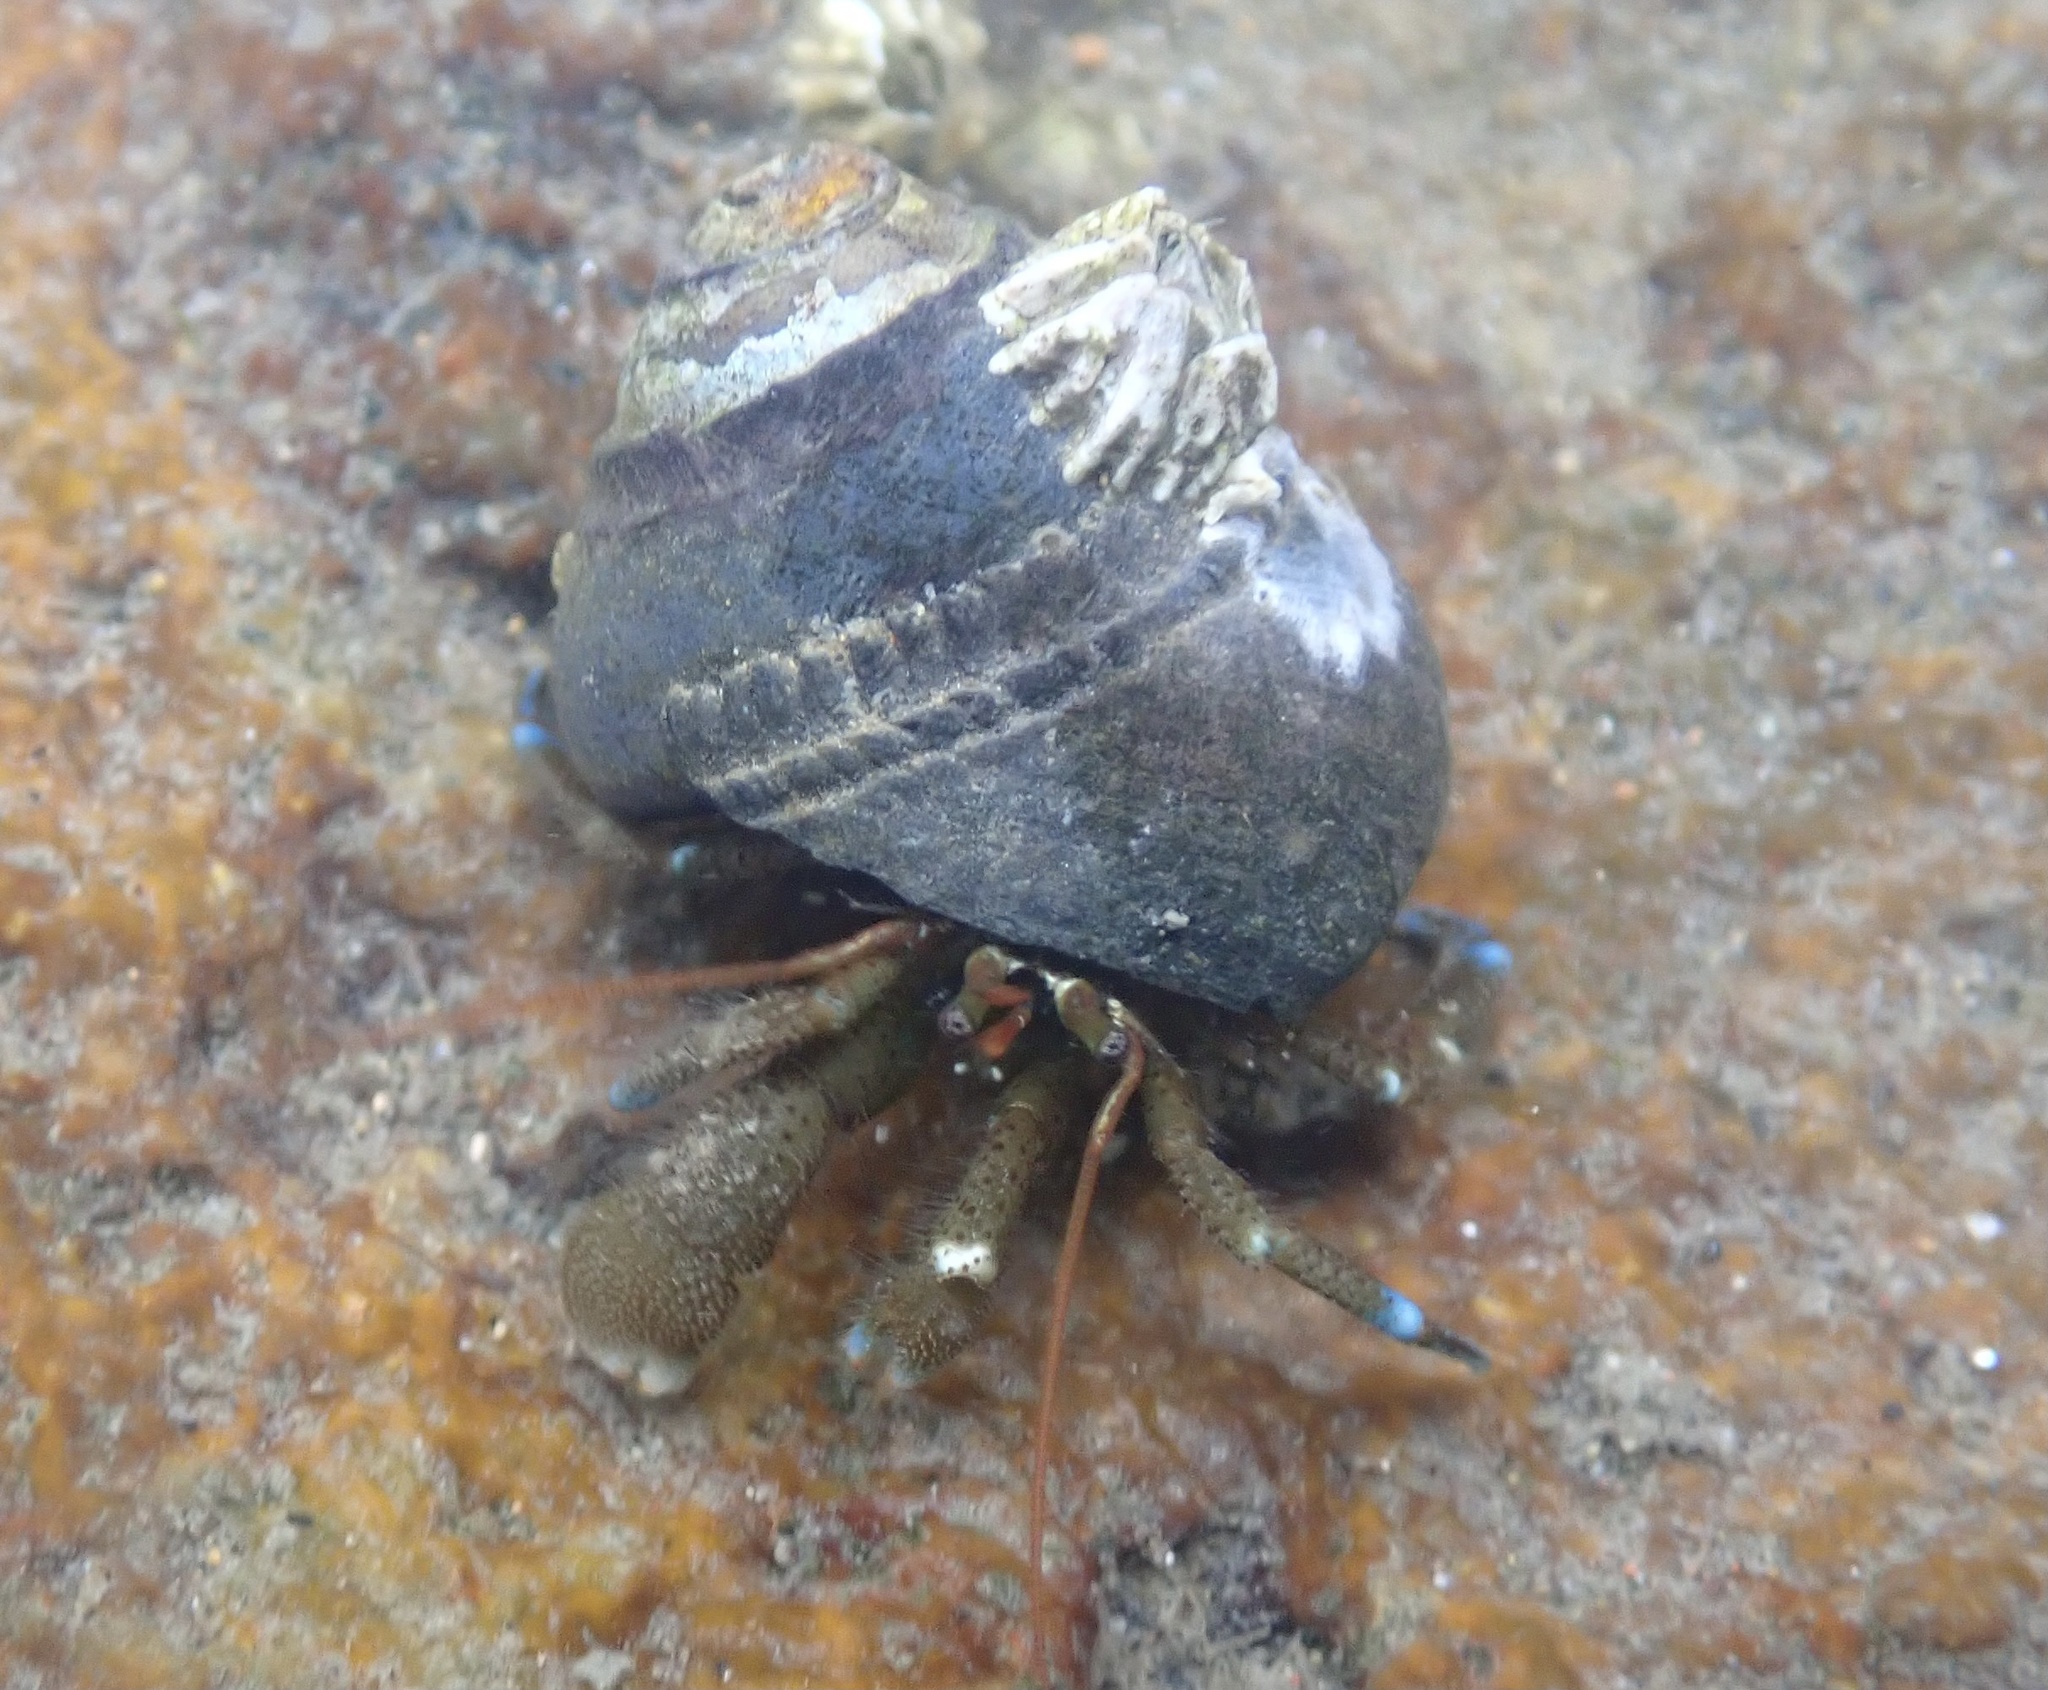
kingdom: Animalia
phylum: Arthropoda
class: Malacostraca
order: Decapoda
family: Paguridae
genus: Pagurus
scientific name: Pagurus samuelis
